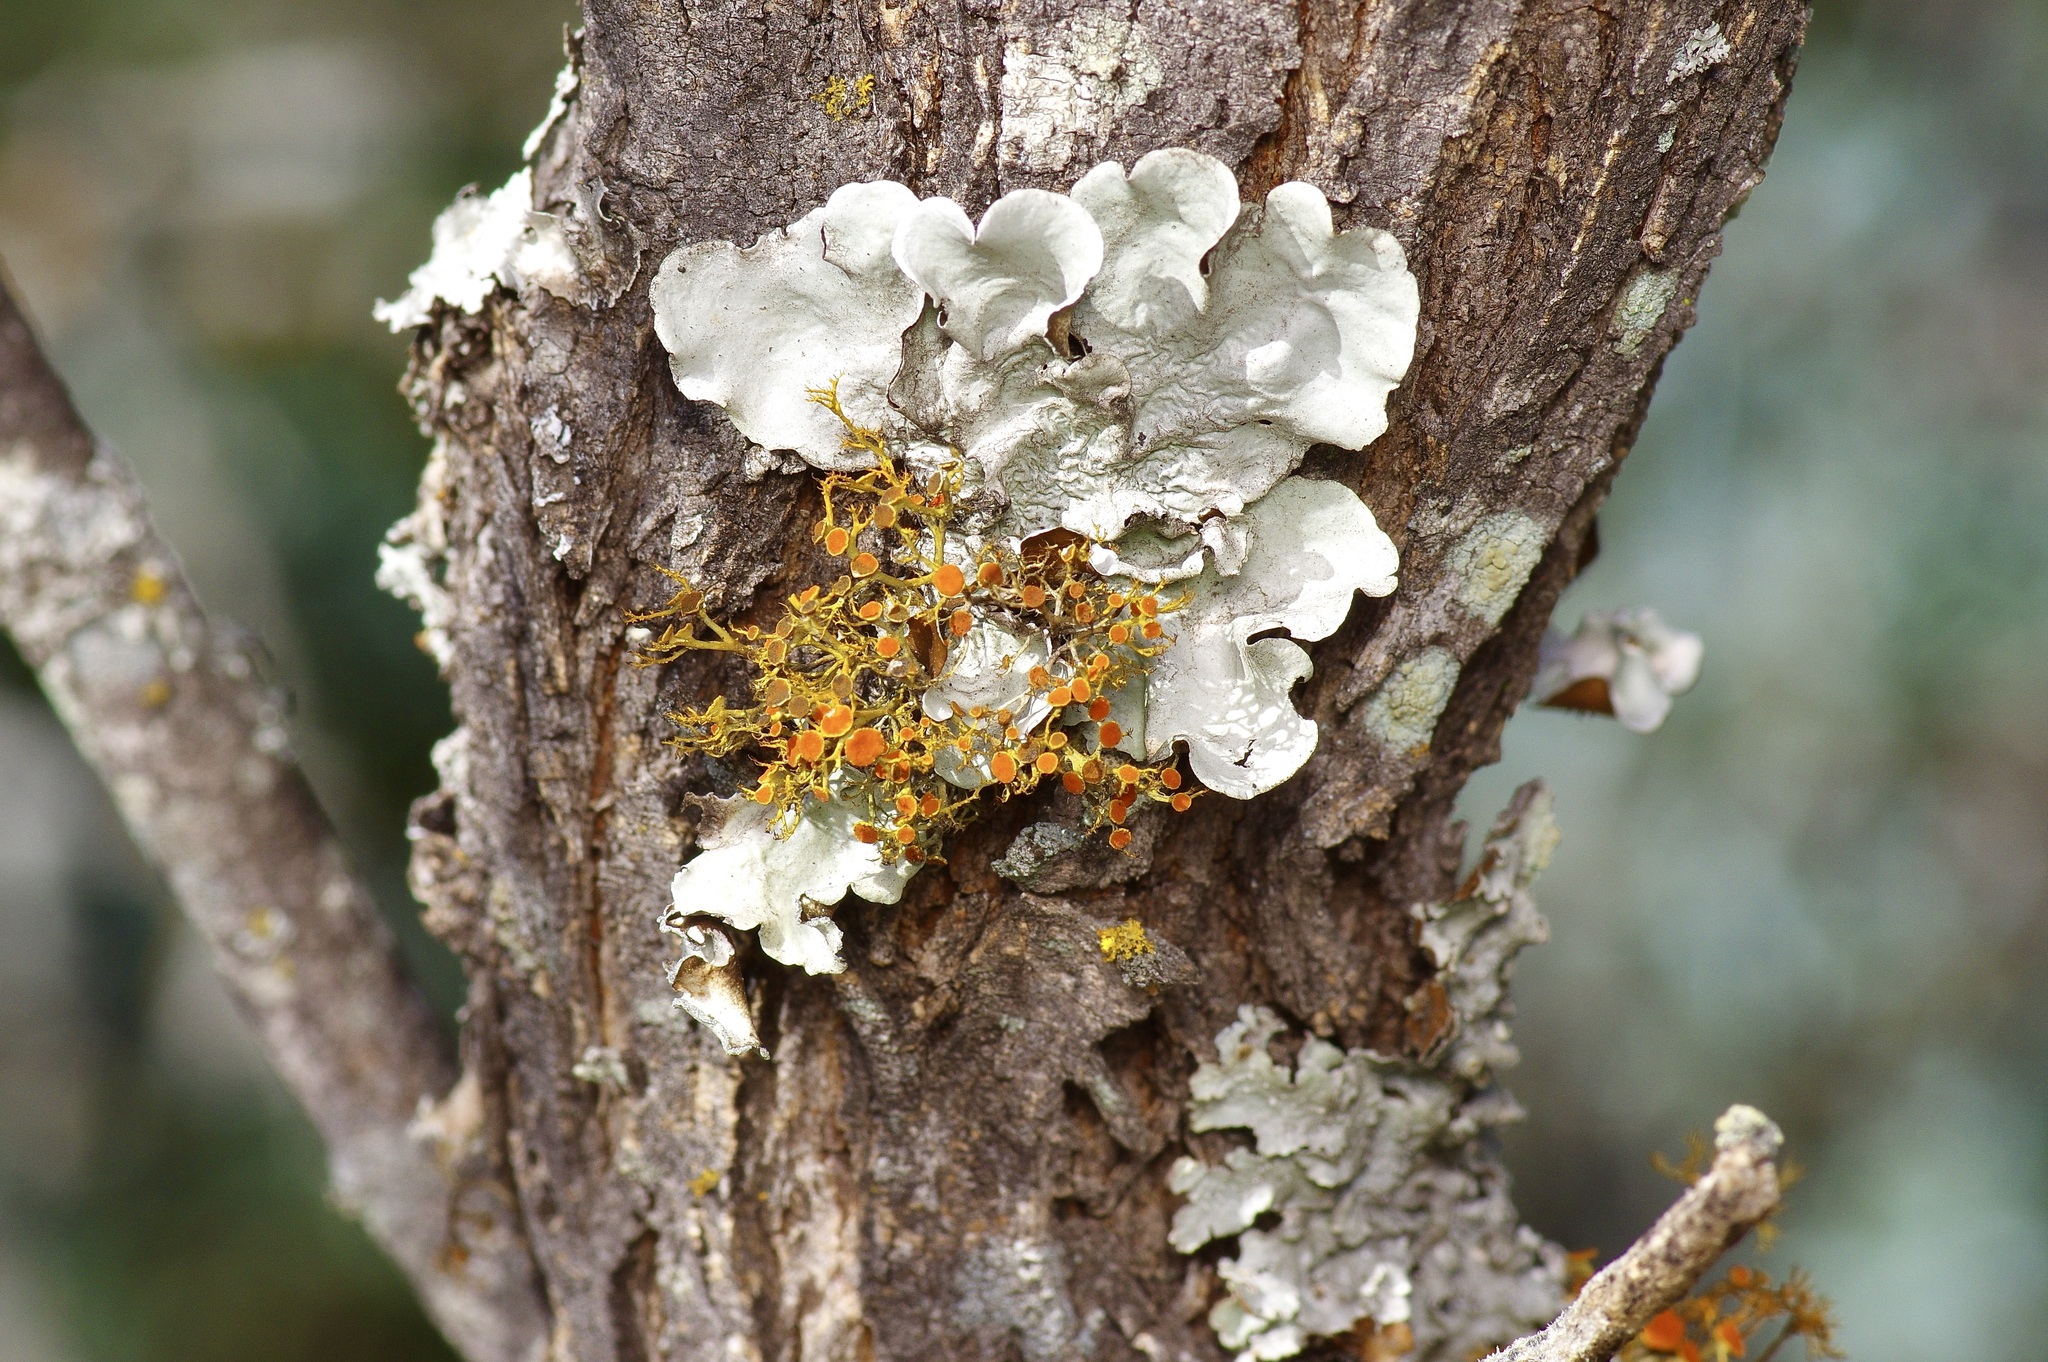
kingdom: Fungi
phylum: Ascomycota
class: Lecanoromycetes
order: Teloschistales
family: Teloschistaceae
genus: Teloschistes
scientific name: Teloschistes exilis
